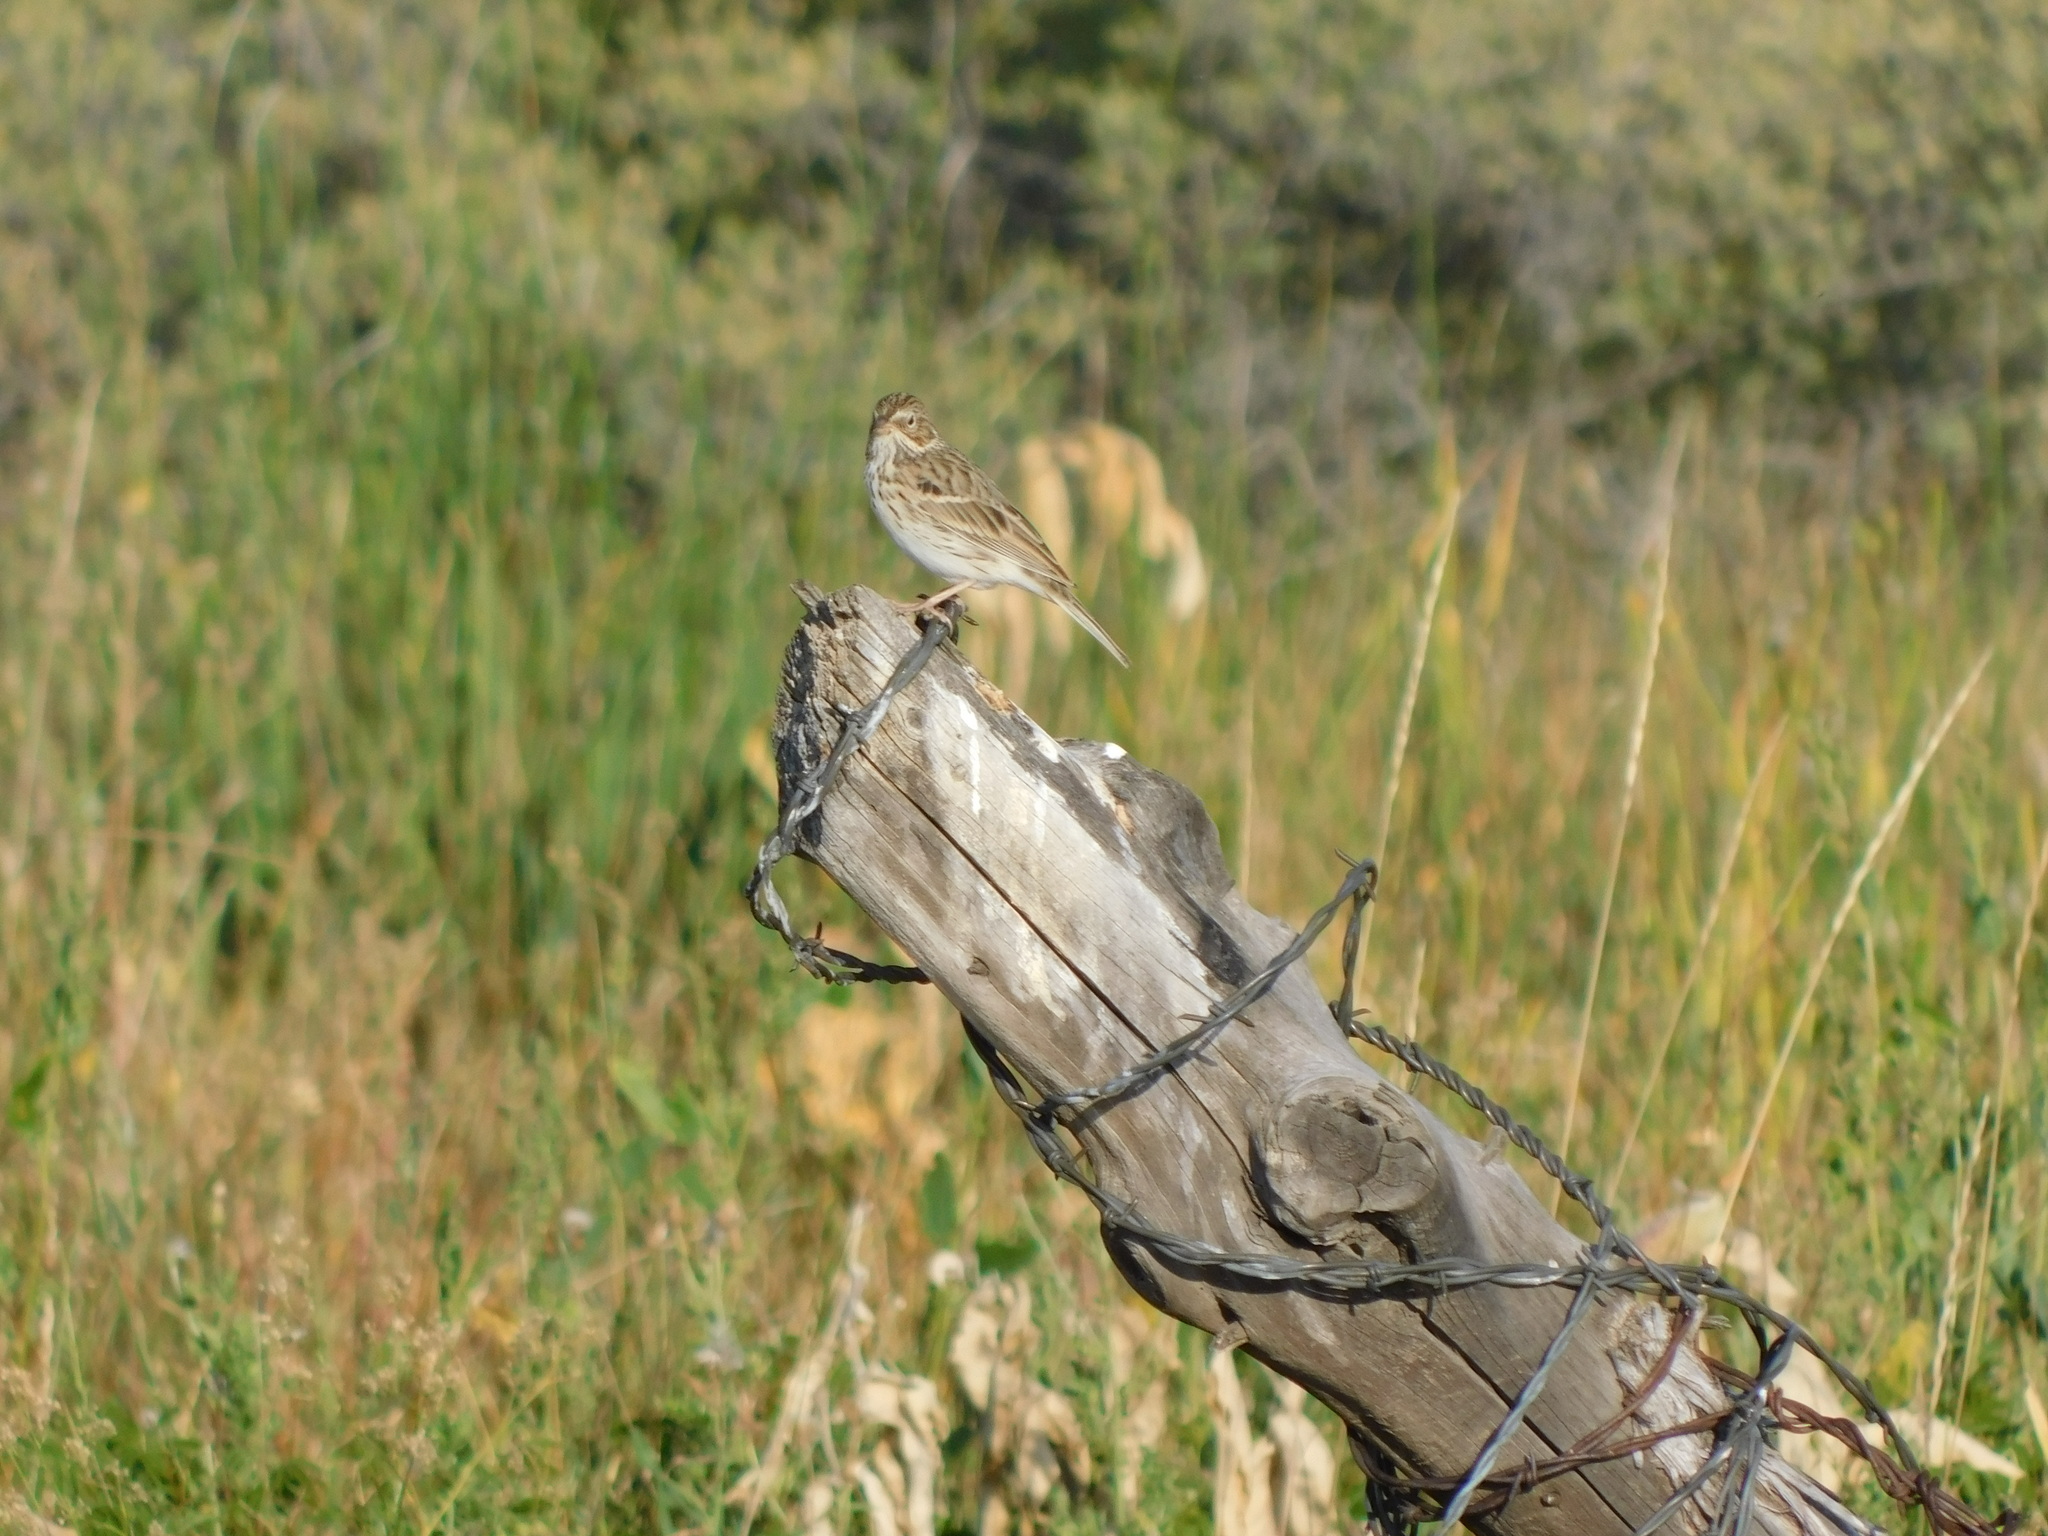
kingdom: Animalia
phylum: Chordata
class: Aves
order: Passeriformes
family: Passerellidae
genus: Pooecetes
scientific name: Pooecetes gramineus
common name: Vesper sparrow
